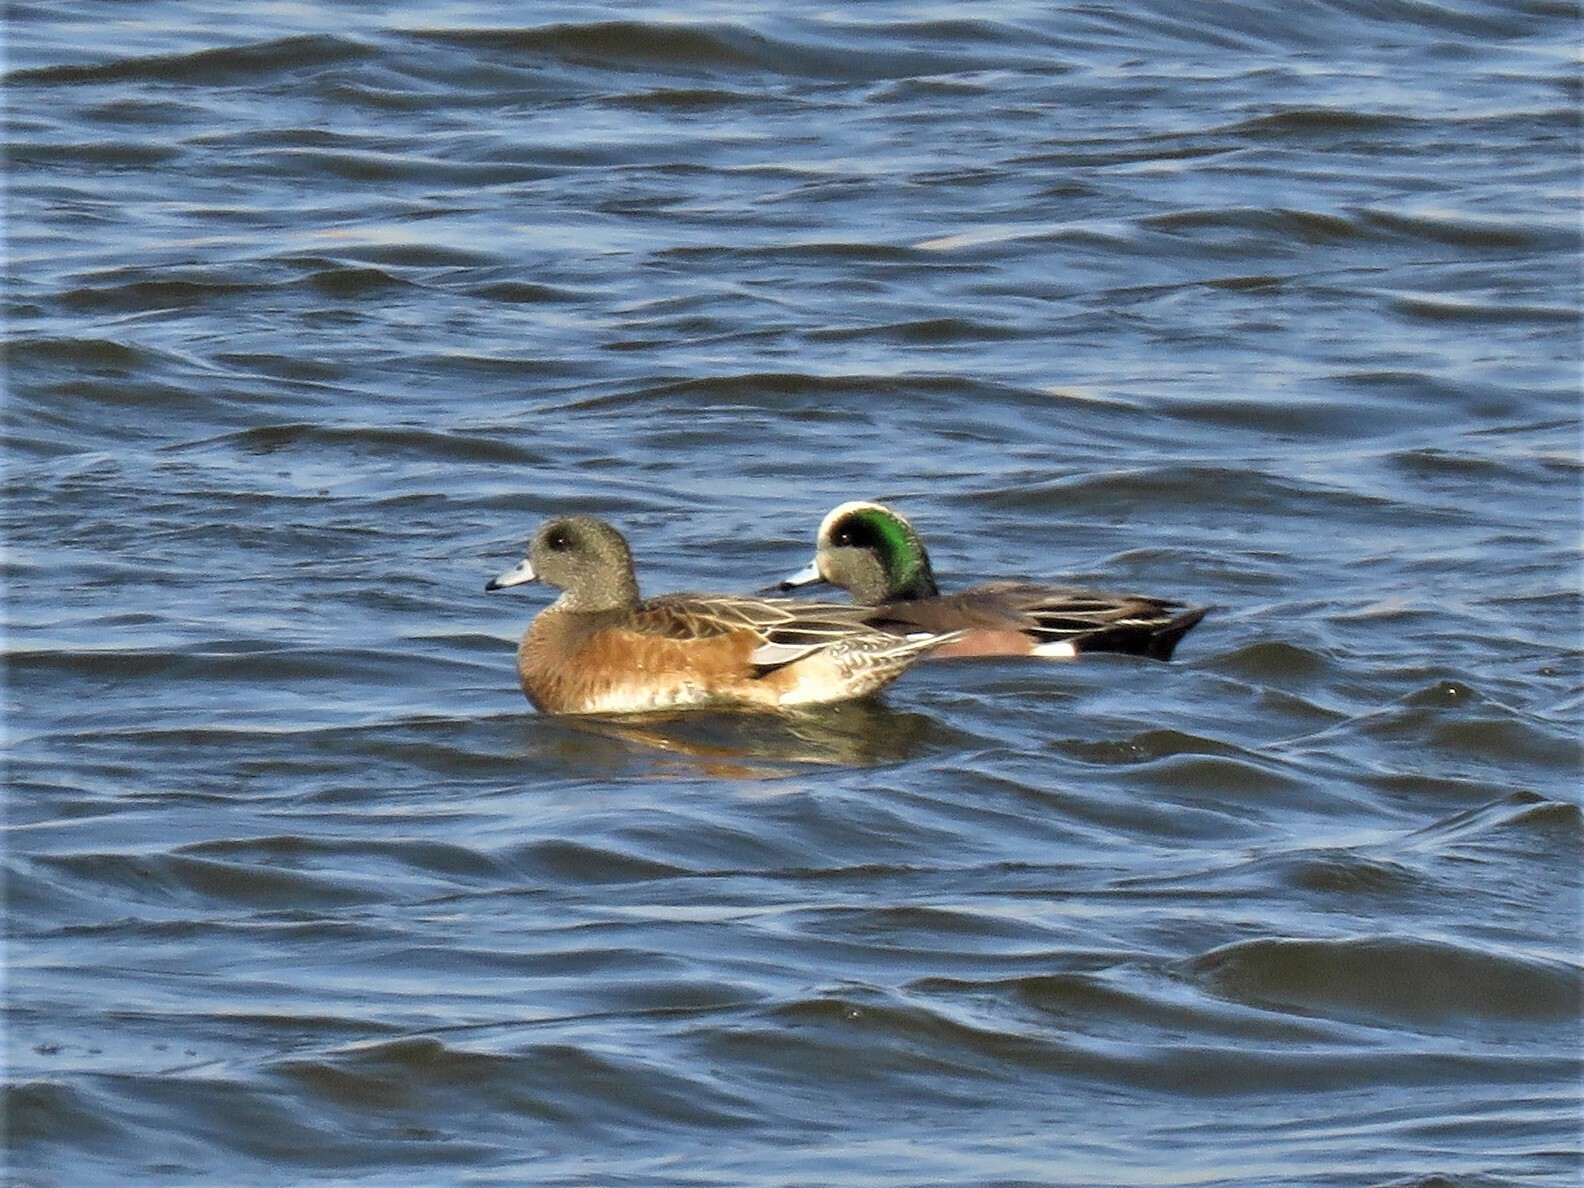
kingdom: Animalia
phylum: Chordata
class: Aves
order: Anseriformes
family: Anatidae
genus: Mareca
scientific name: Mareca americana
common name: American wigeon
